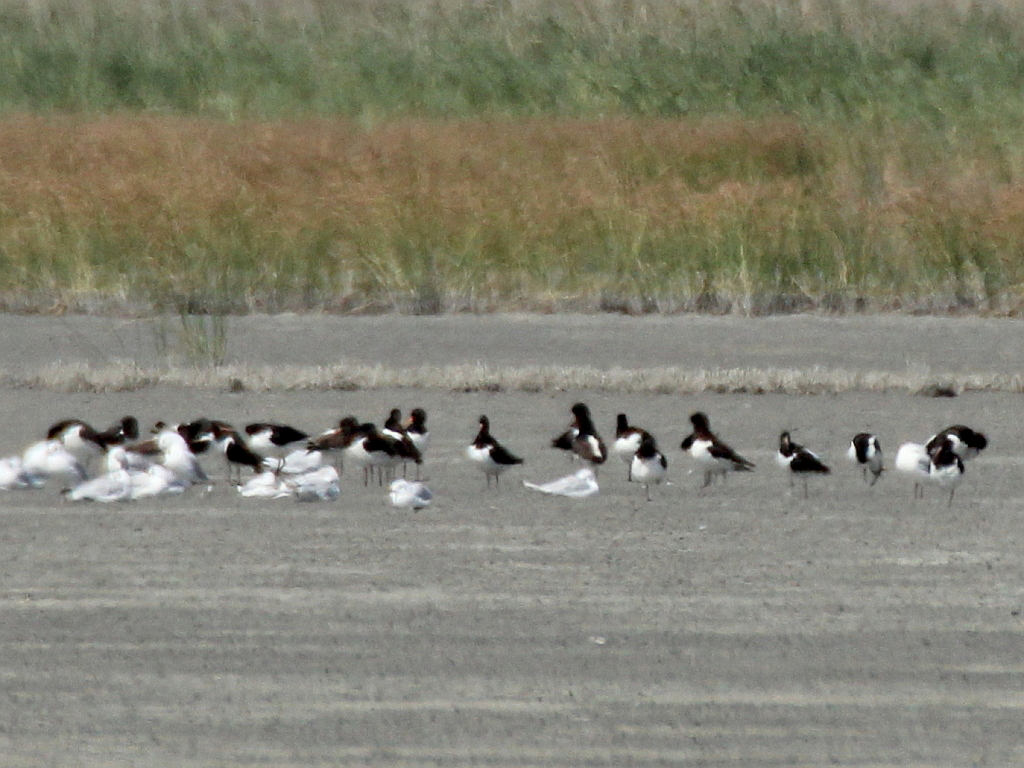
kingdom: Animalia
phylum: Chordata
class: Aves
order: Charadriiformes
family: Haematopodidae
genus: Haematopus
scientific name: Haematopus ostralegus
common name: Eurasian oystercatcher
